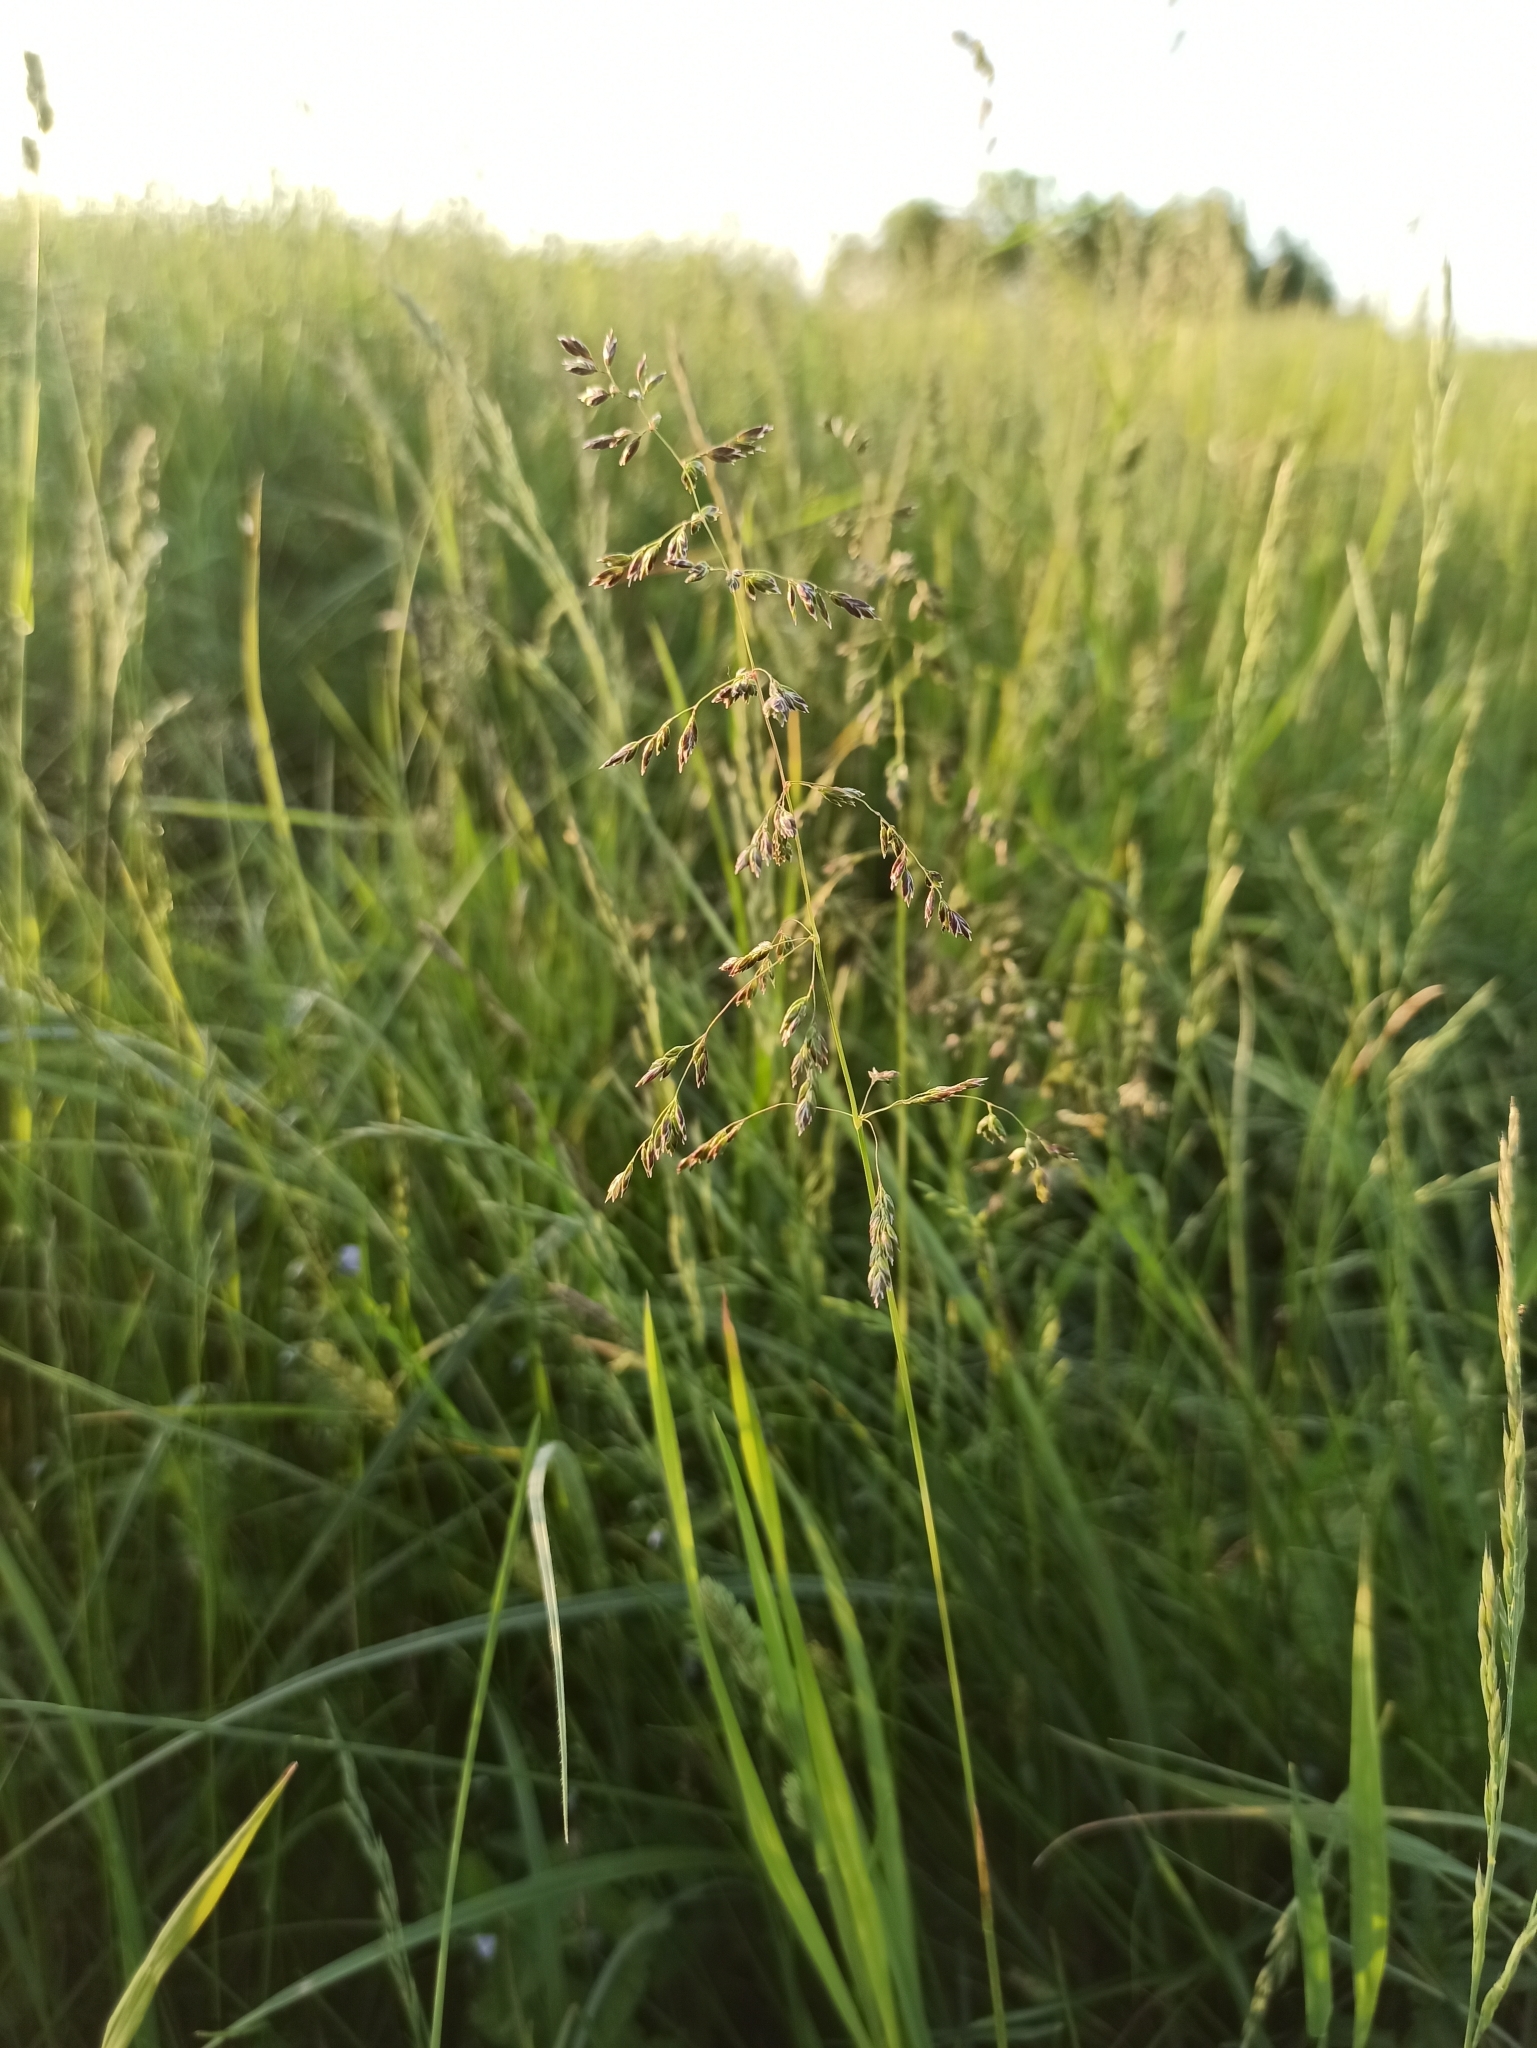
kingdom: Plantae
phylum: Tracheophyta
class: Liliopsida
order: Poales
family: Poaceae
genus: Poa
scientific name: Poa pratensis
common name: Kentucky bluegrass
